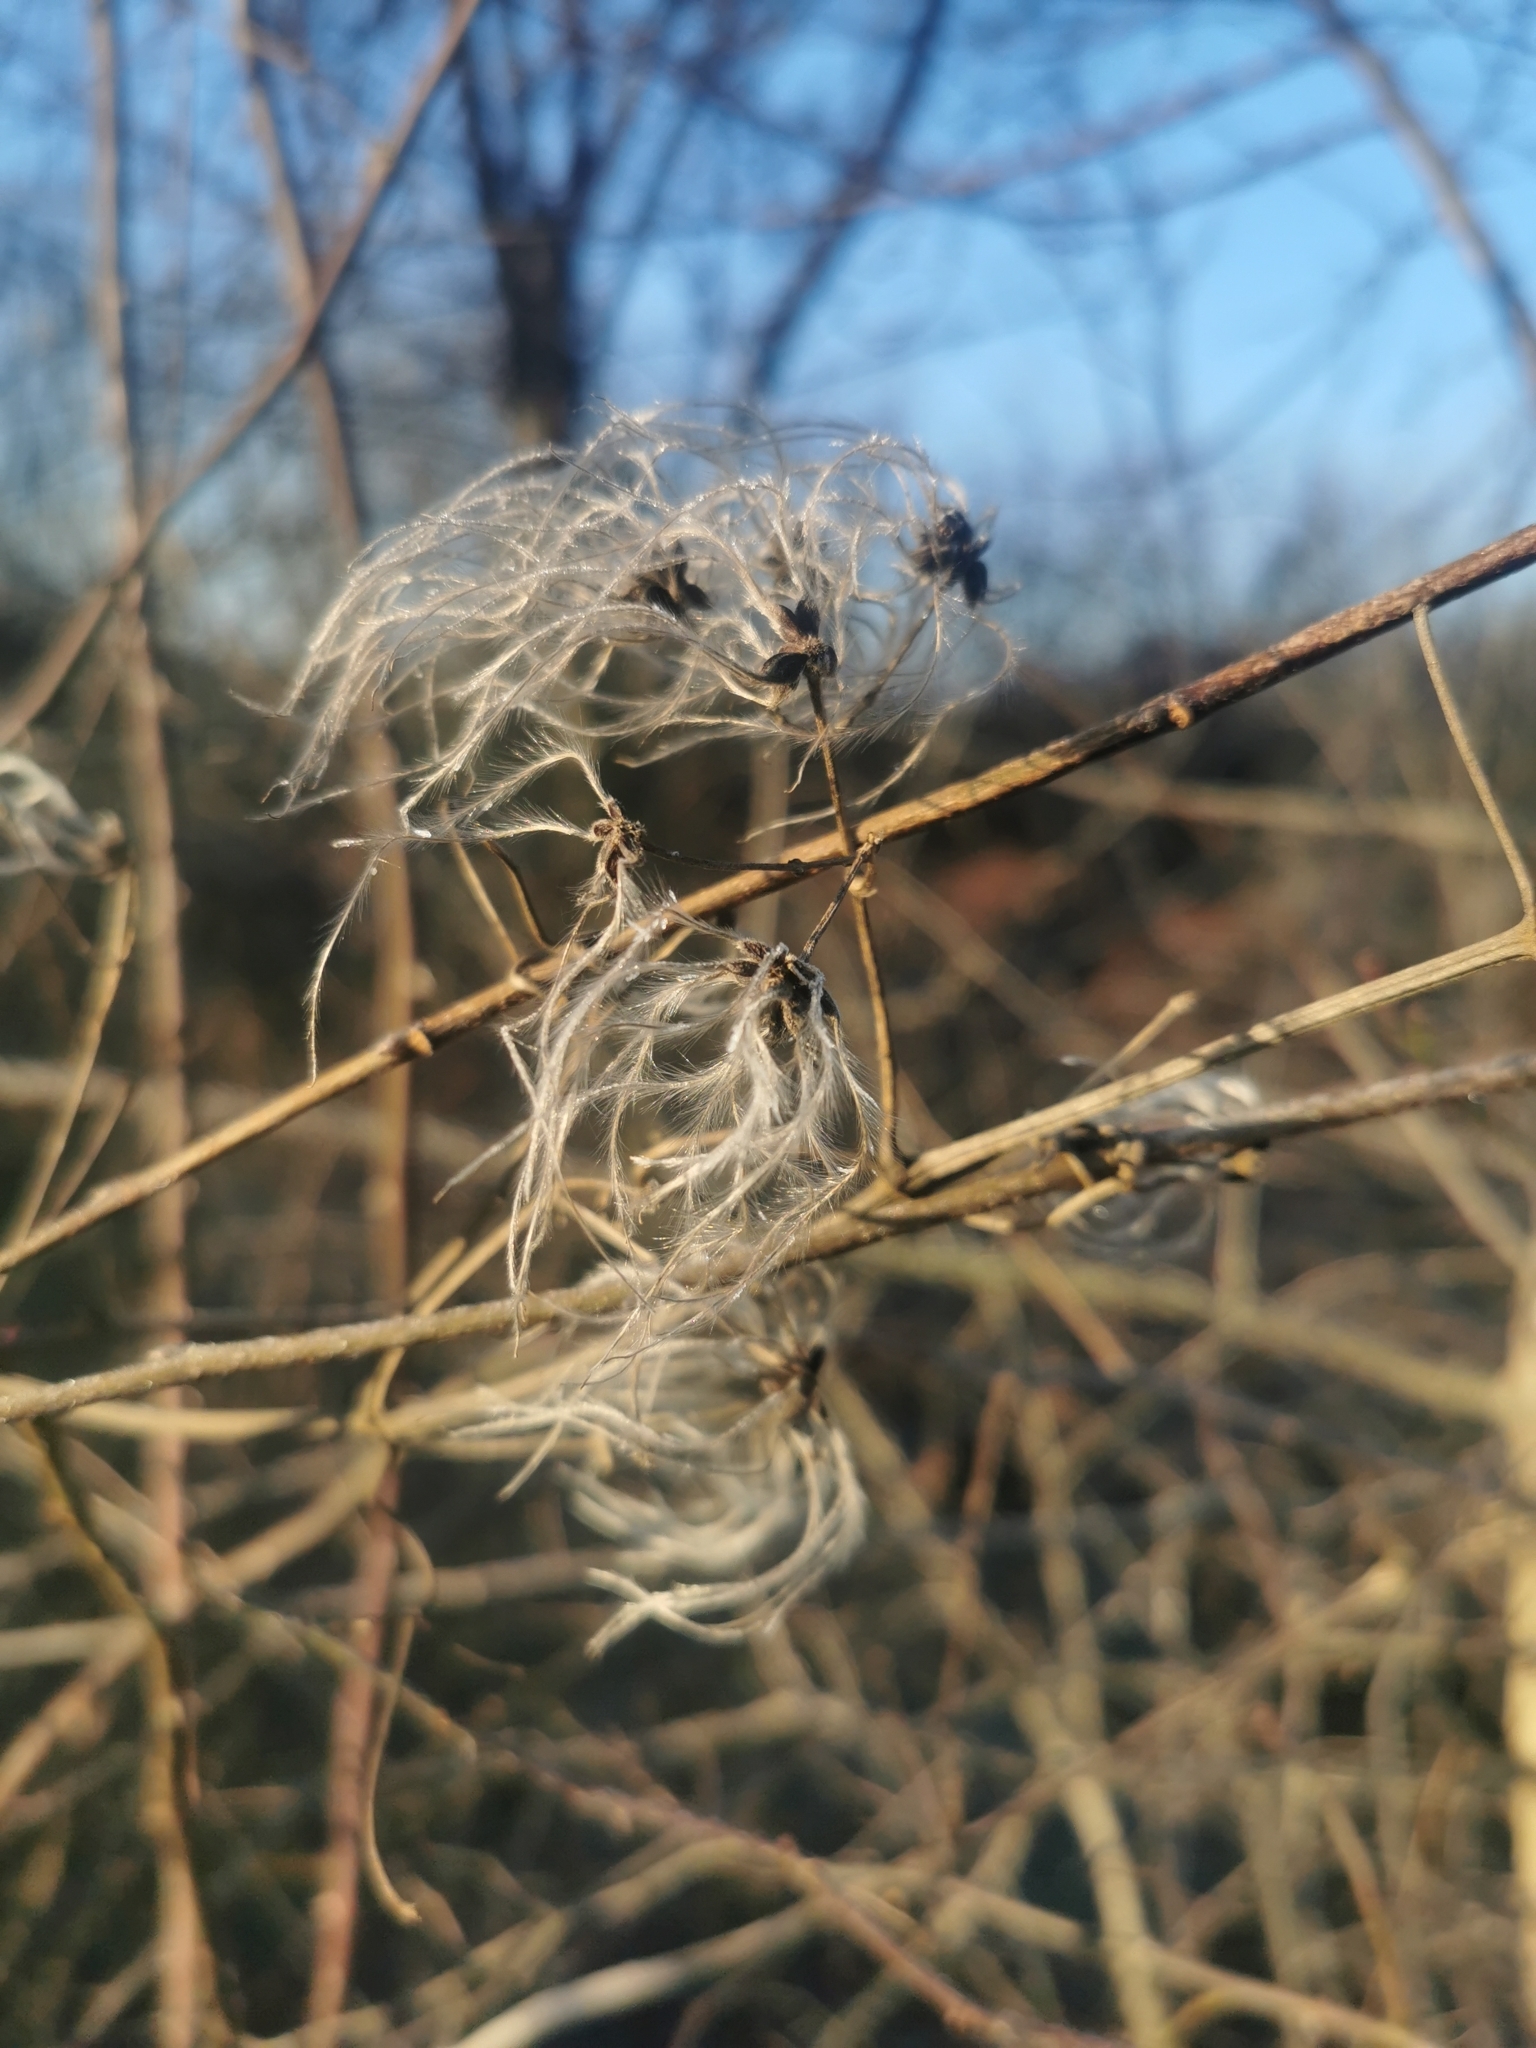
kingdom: Plantae
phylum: Tracheophyta
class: Magnoliopsida
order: Ranunculales
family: Ranunculaceae
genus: Clematis
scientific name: Clematis vitalba
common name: Evergreen clematis
